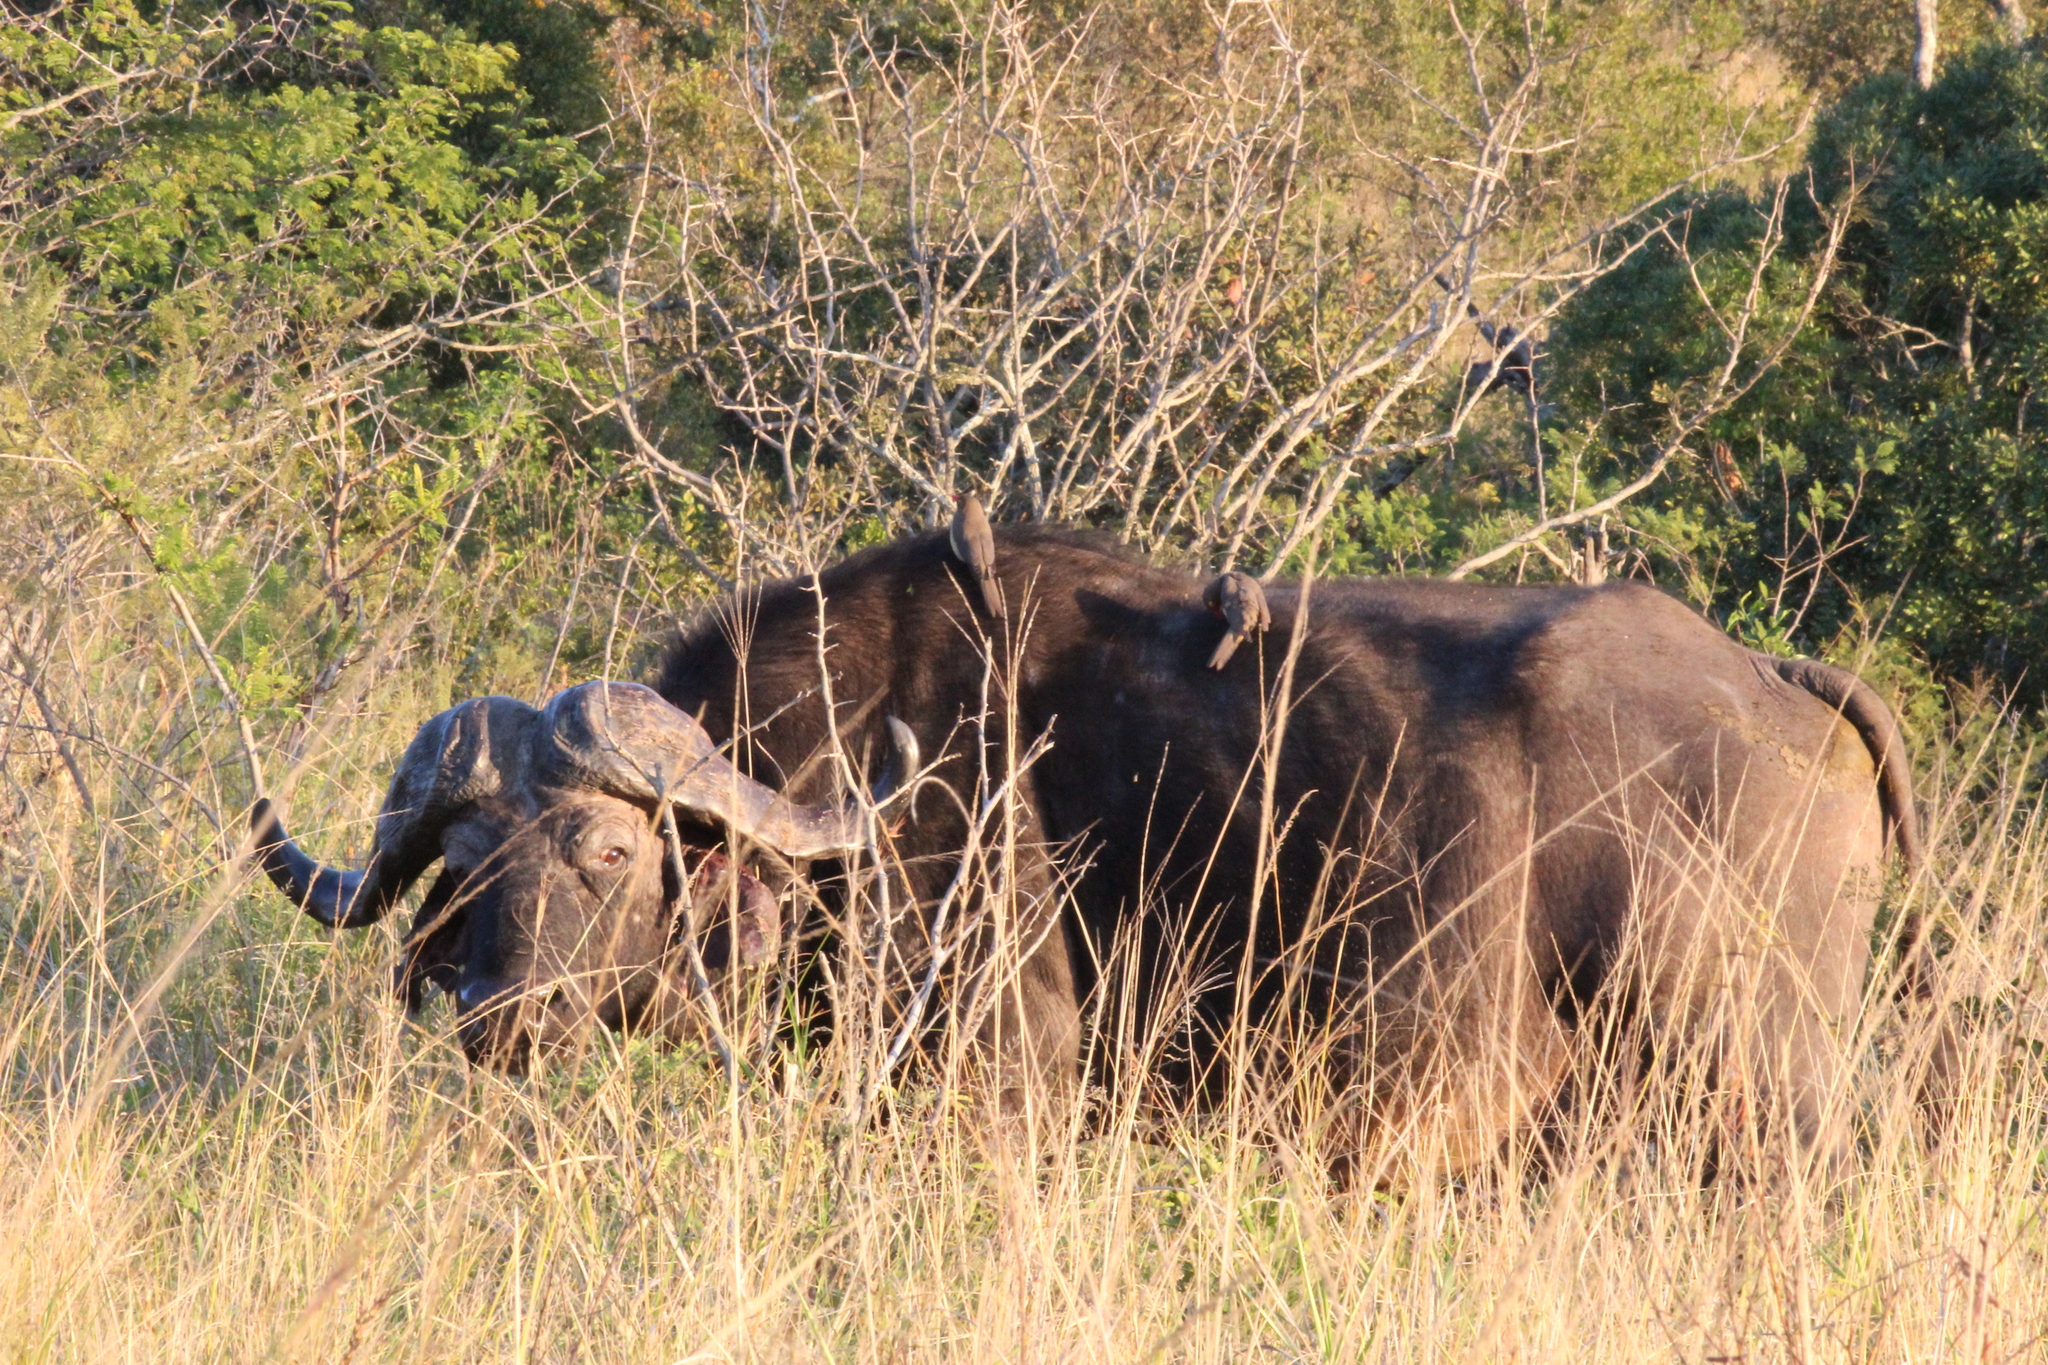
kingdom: Animalia
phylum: Chordata
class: Mammalia
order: Artiodactyla
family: Bovidae
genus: Syncerus
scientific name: Syncerus caffer
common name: African buffalo
